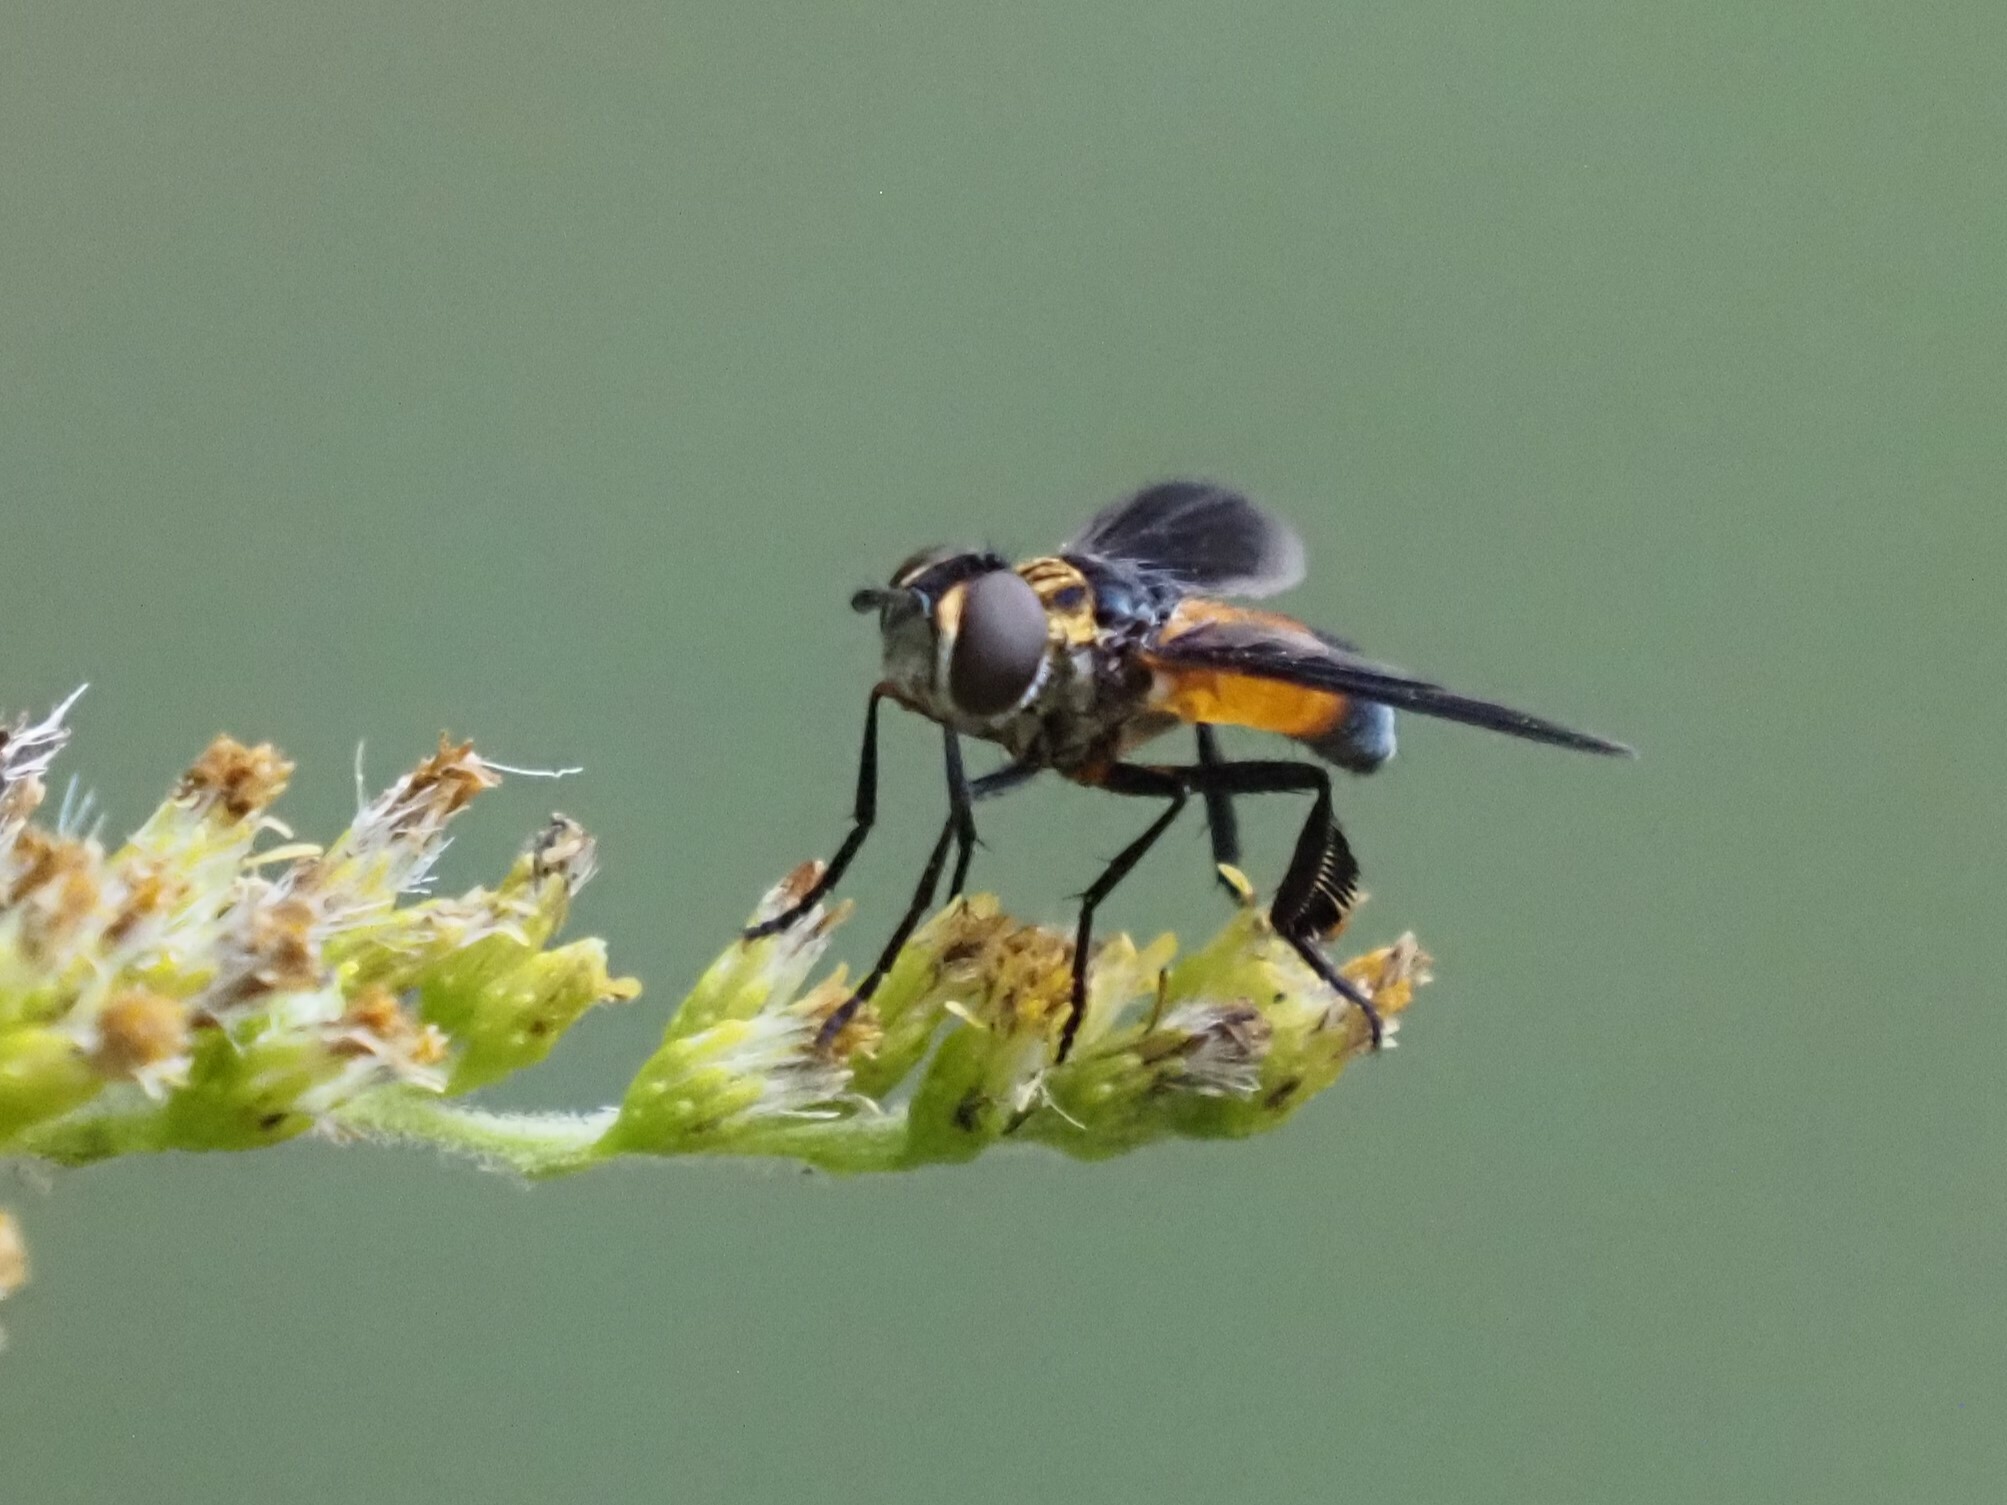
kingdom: Animalia
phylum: Arthropoda
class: Insecta
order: Diptera
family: Tachinidae
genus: Trichopoda
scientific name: Trichopoda pennipes
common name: Tachinid fly
